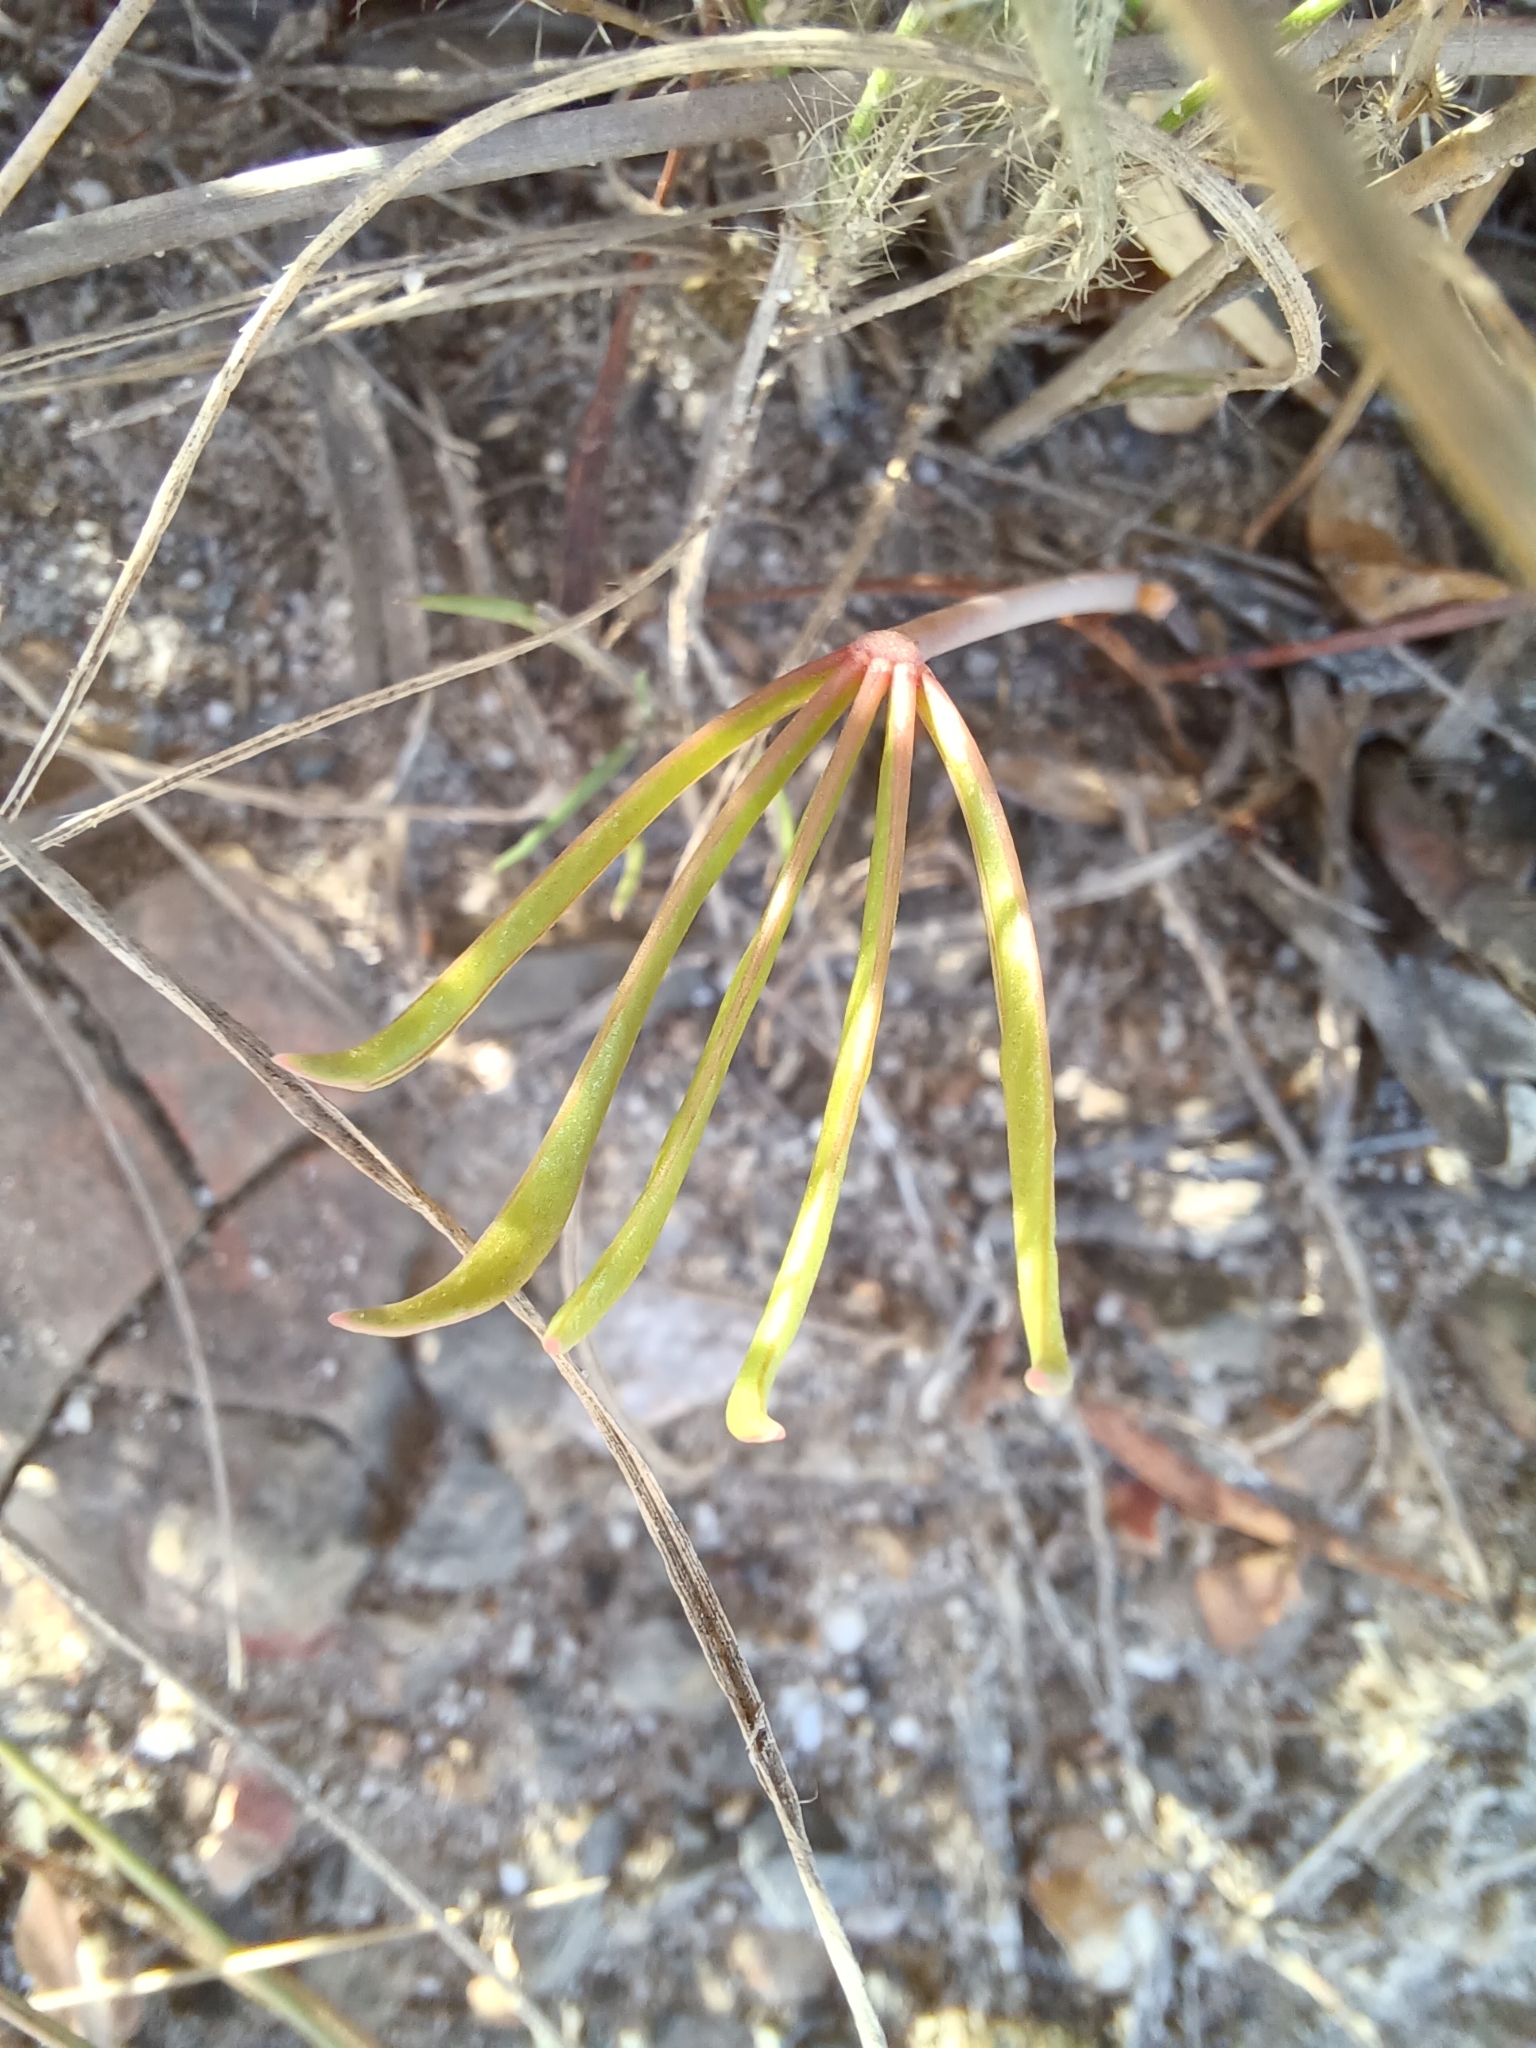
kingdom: Plantae
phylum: Tracheophyta
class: Magnoliopsida
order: Oxalidales
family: Oxalidaceae
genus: Oxalis
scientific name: Oxalis flava
